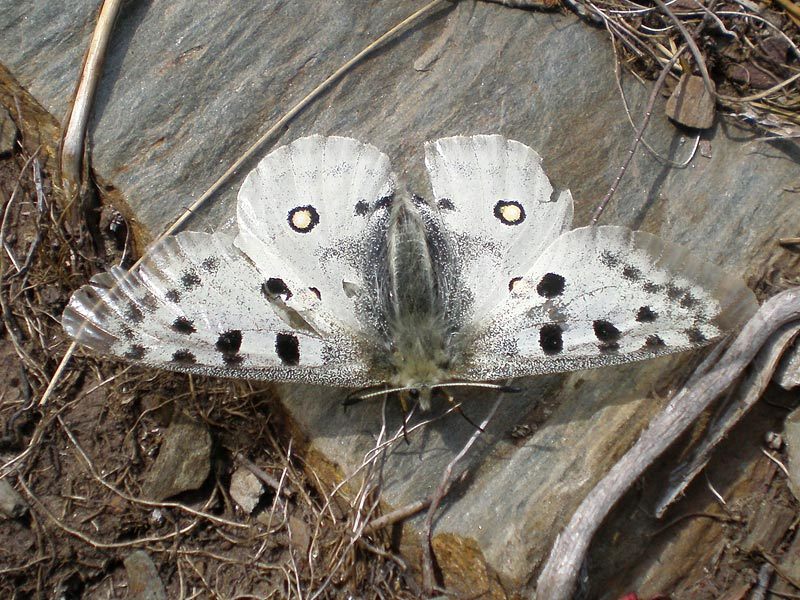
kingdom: Animalia
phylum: Arthropoda
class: Insecta
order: Lepidoptera
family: Papilionidae
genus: Parnassius
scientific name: Parnassius apollo
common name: Apollo
